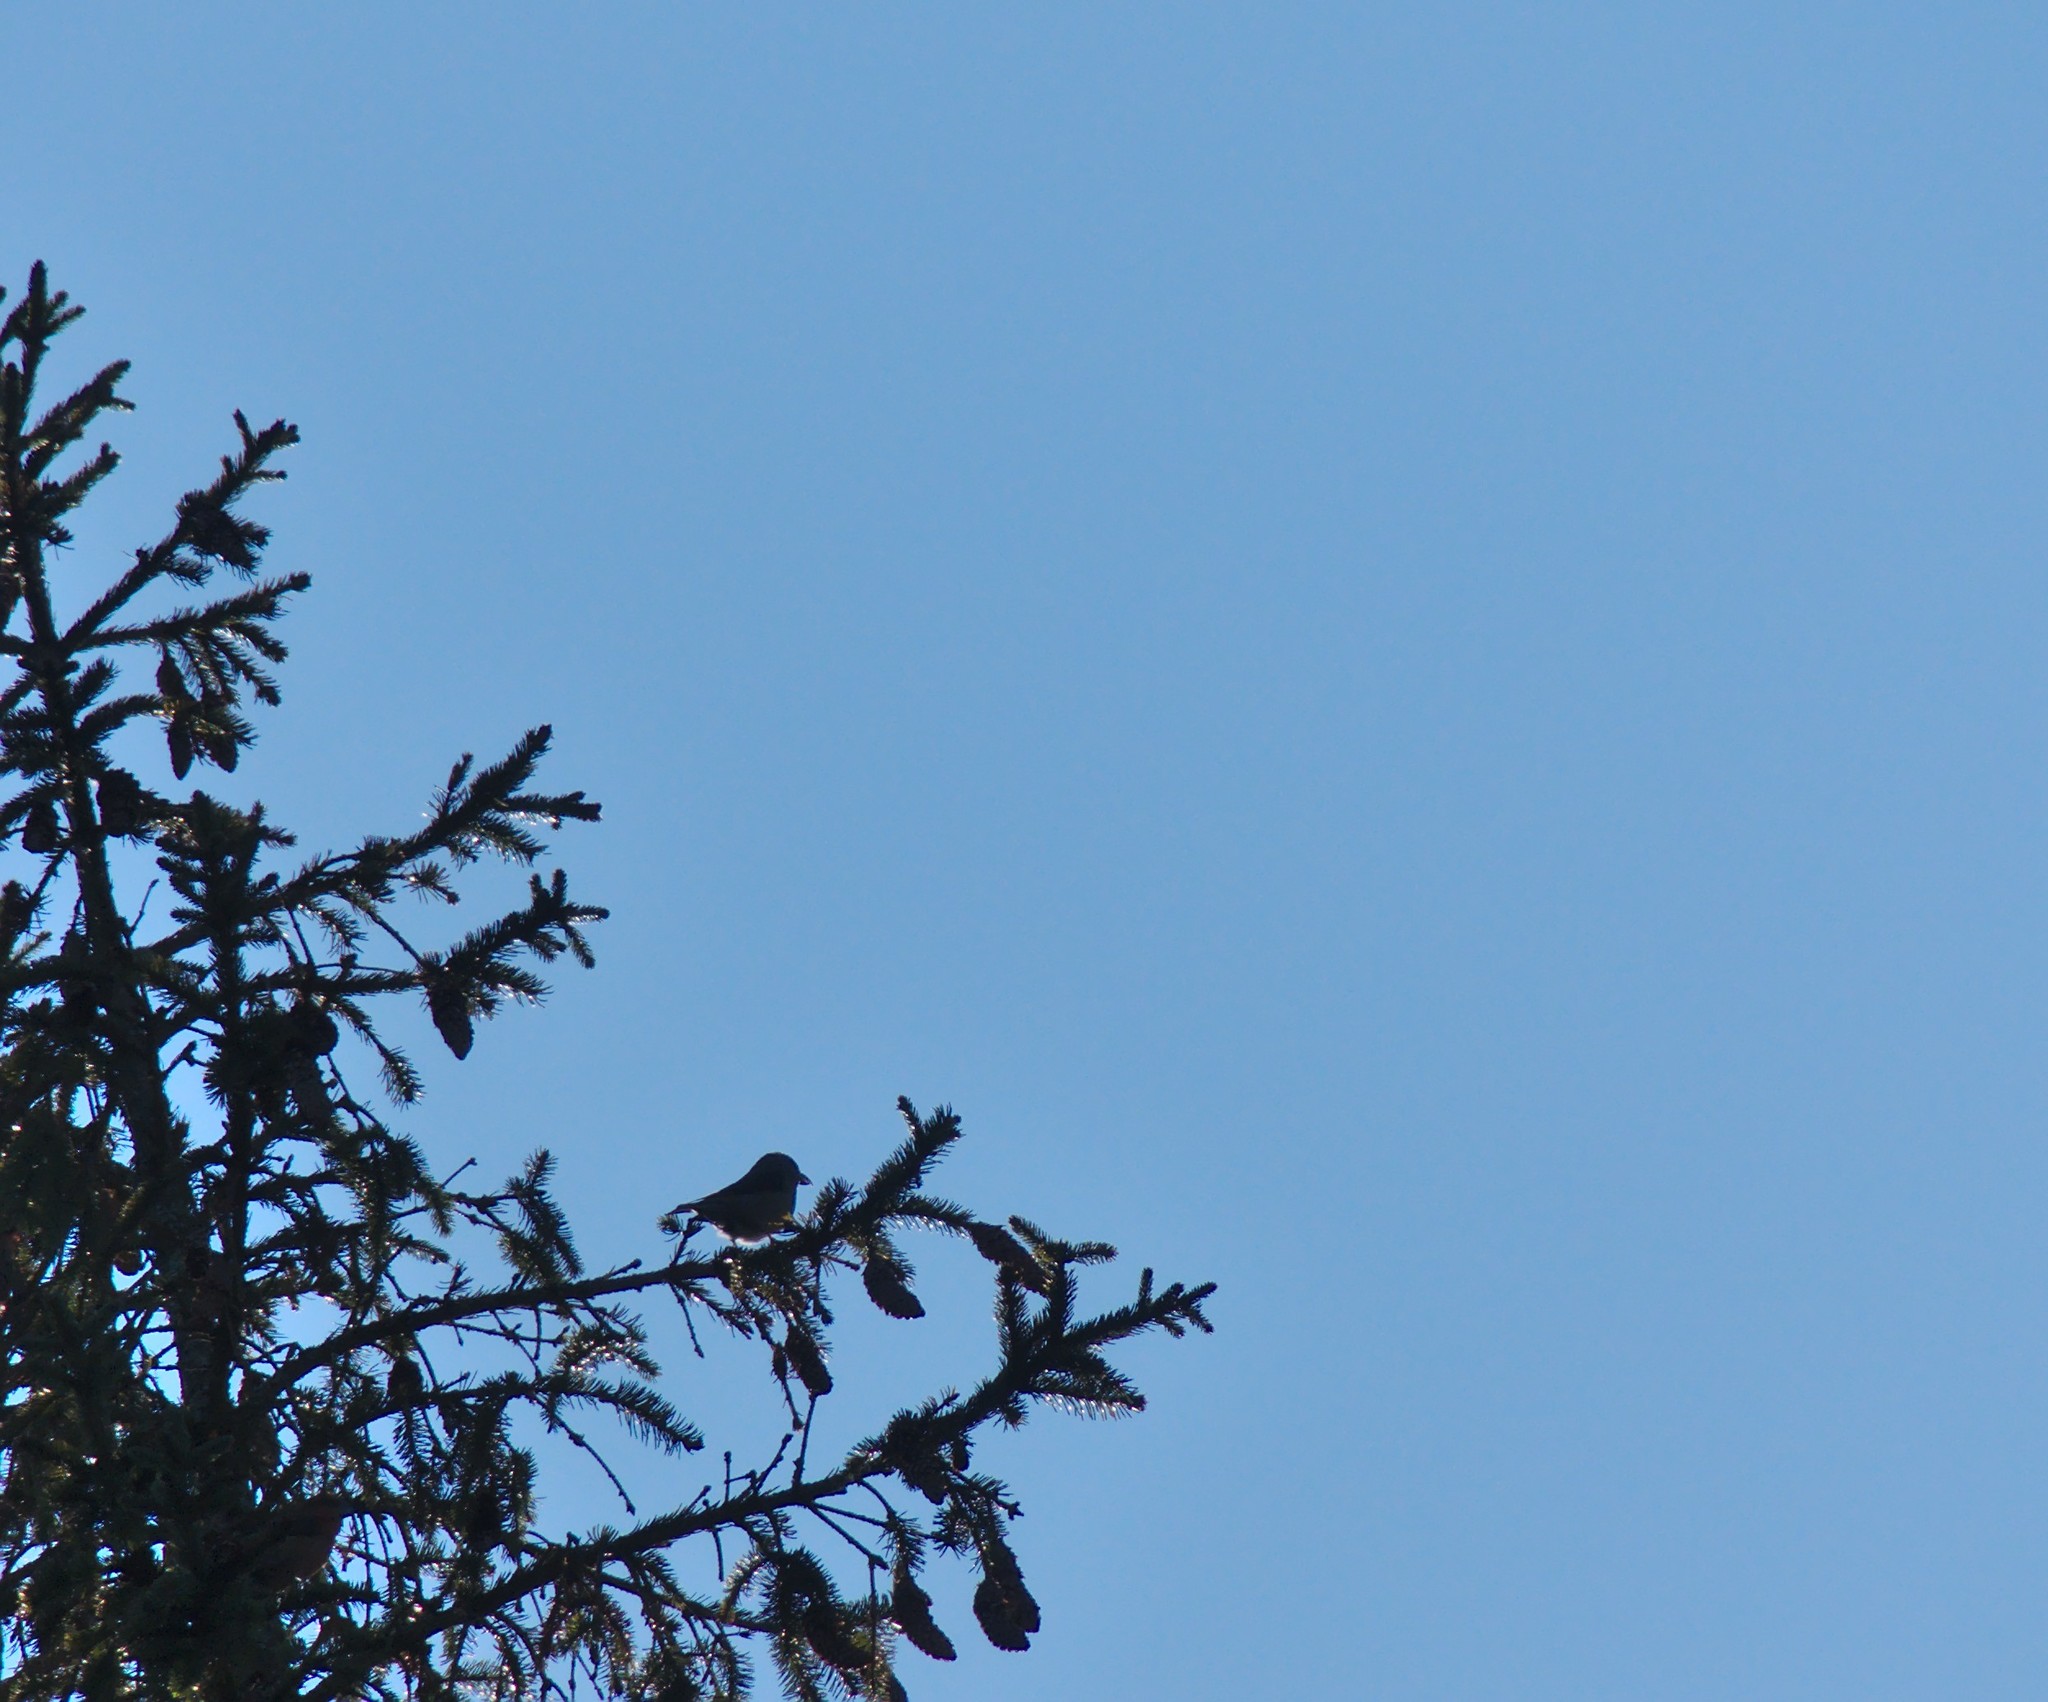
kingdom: Animalia
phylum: Chordata
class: Aves
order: Passeriformes
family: Fringillidae
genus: Loxia
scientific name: Loxia
